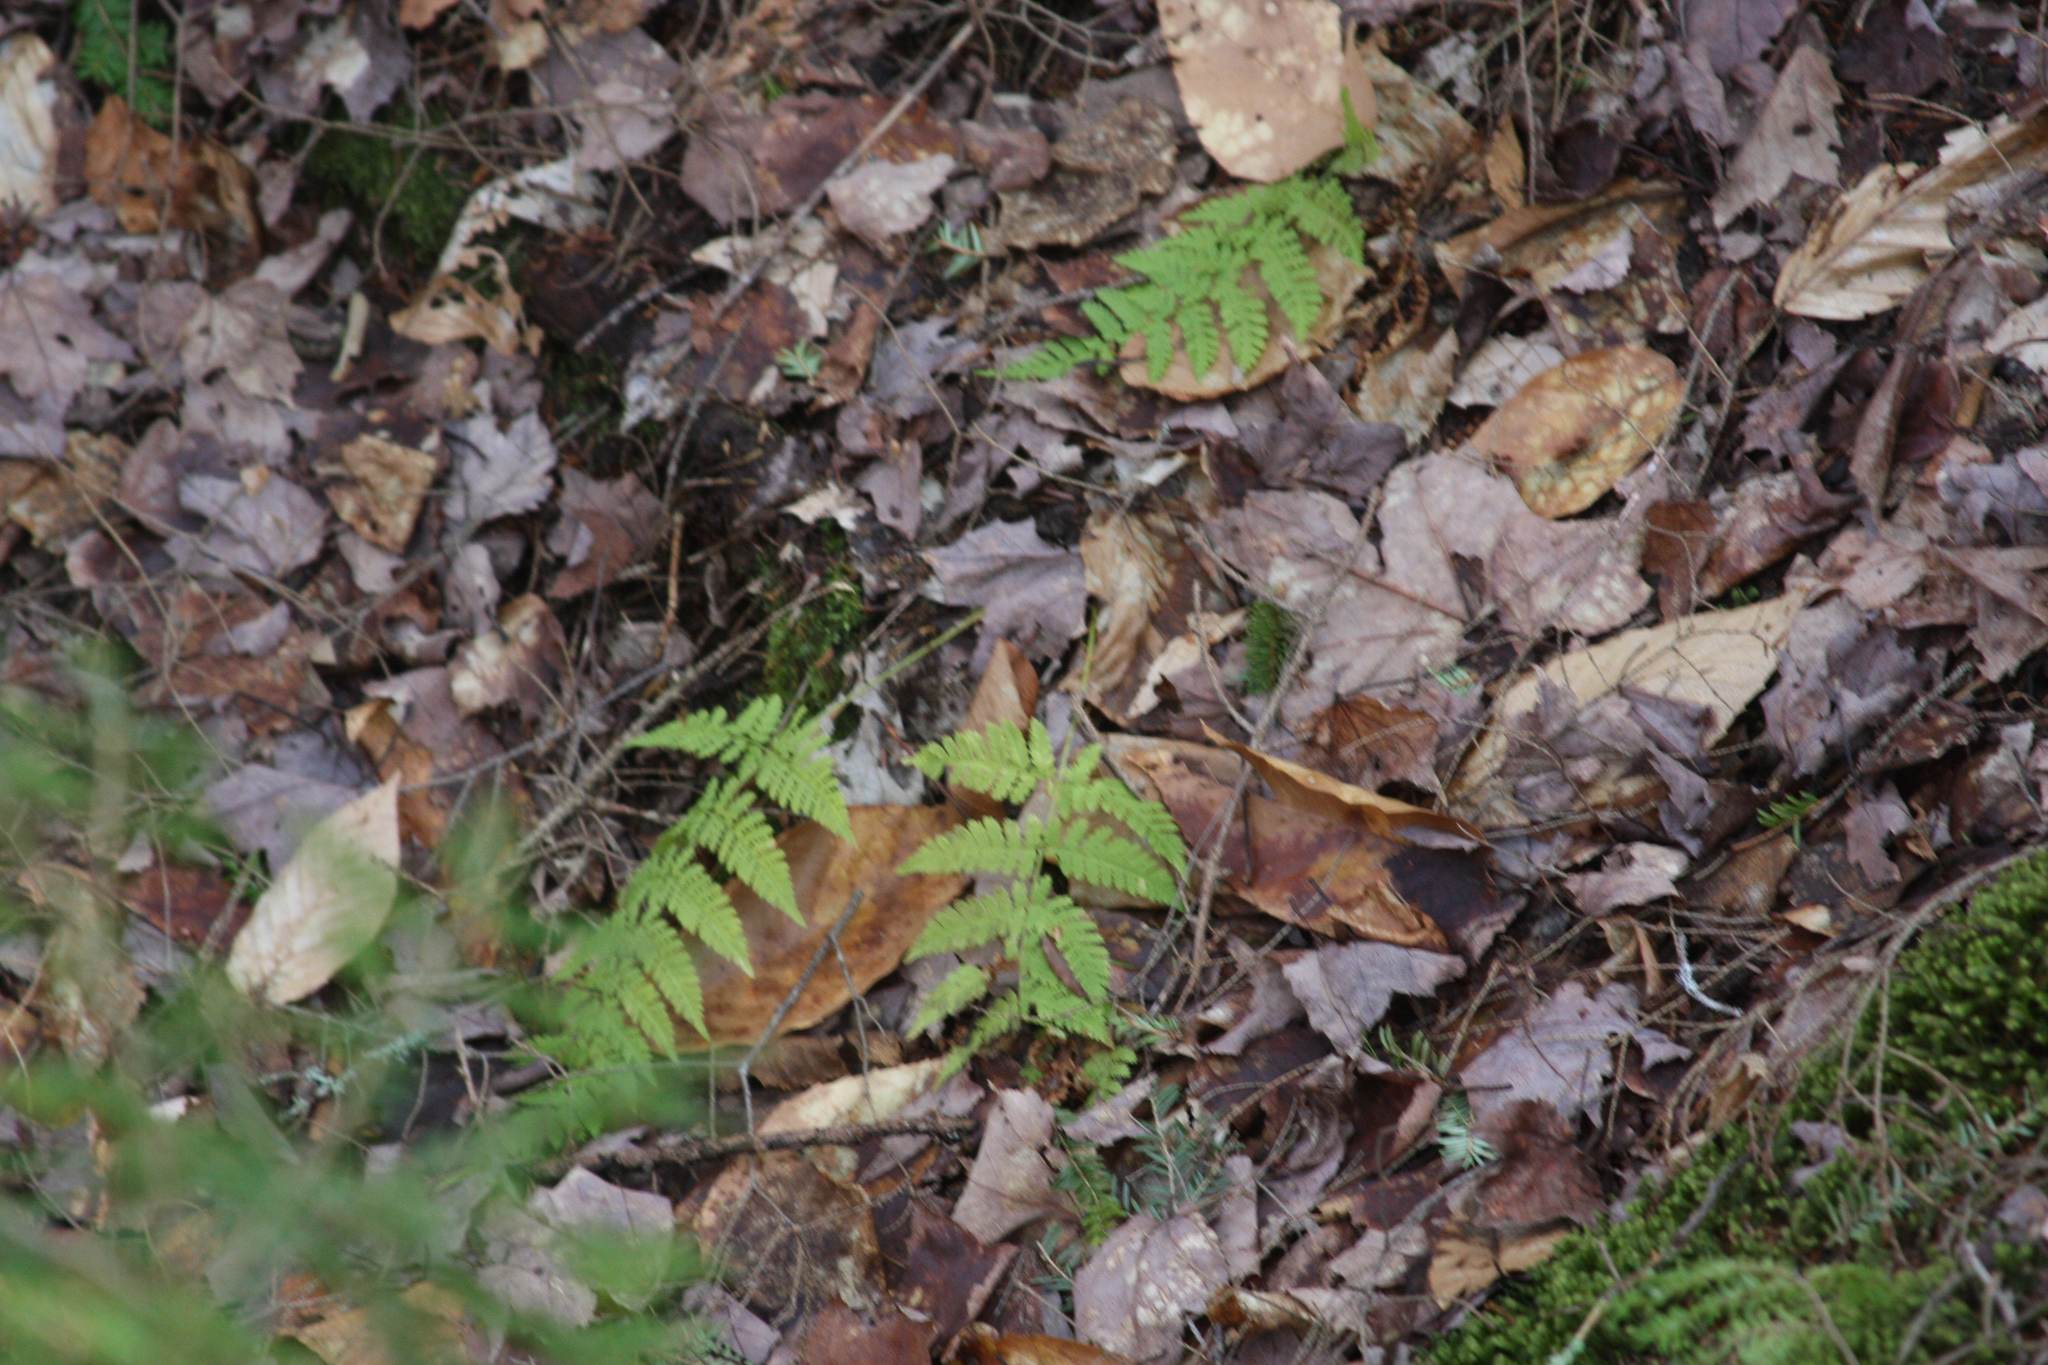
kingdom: Plantae
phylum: Tracheophyta
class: Polypodiopsida
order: Polypodiales
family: Dryopteridaceae
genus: Dryopteris
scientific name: Dryopteris intermedia
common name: Evergreen wood fern
